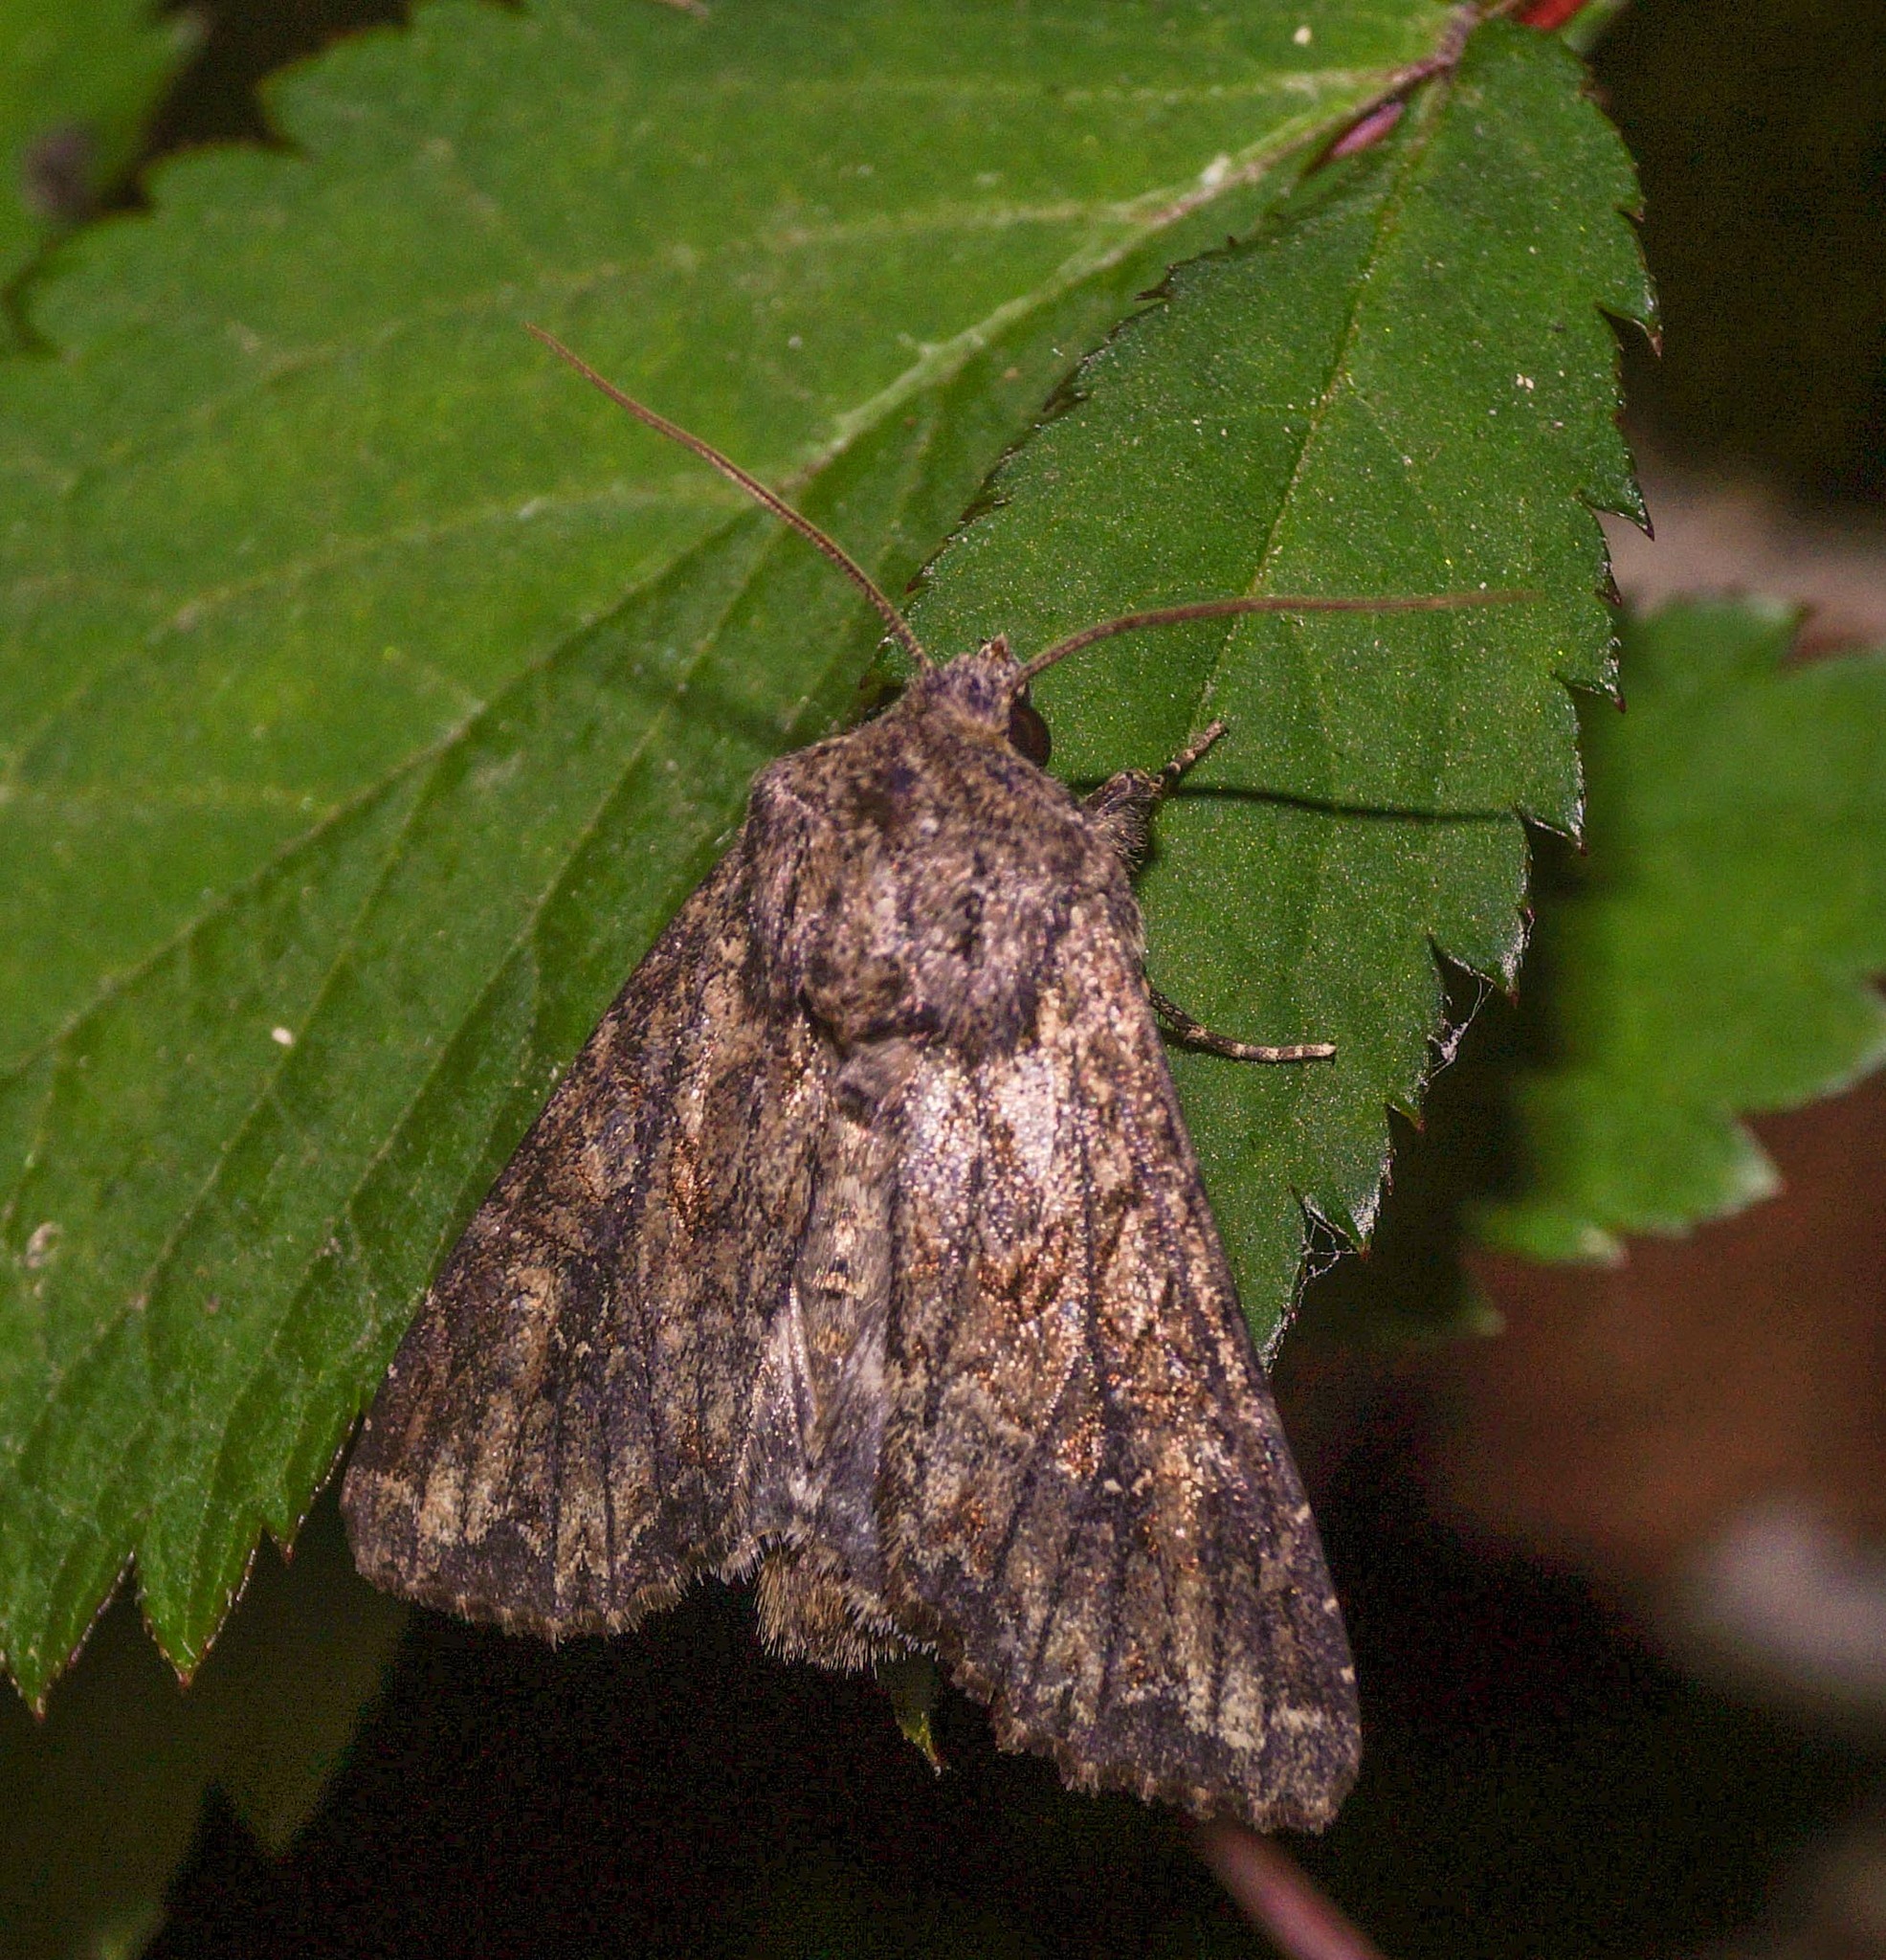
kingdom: Animalia
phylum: Arthropoda
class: Insecta
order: Lepidoptera
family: Noctuidae
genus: Apamea
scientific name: Apamea anceps
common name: Large nutmeg
